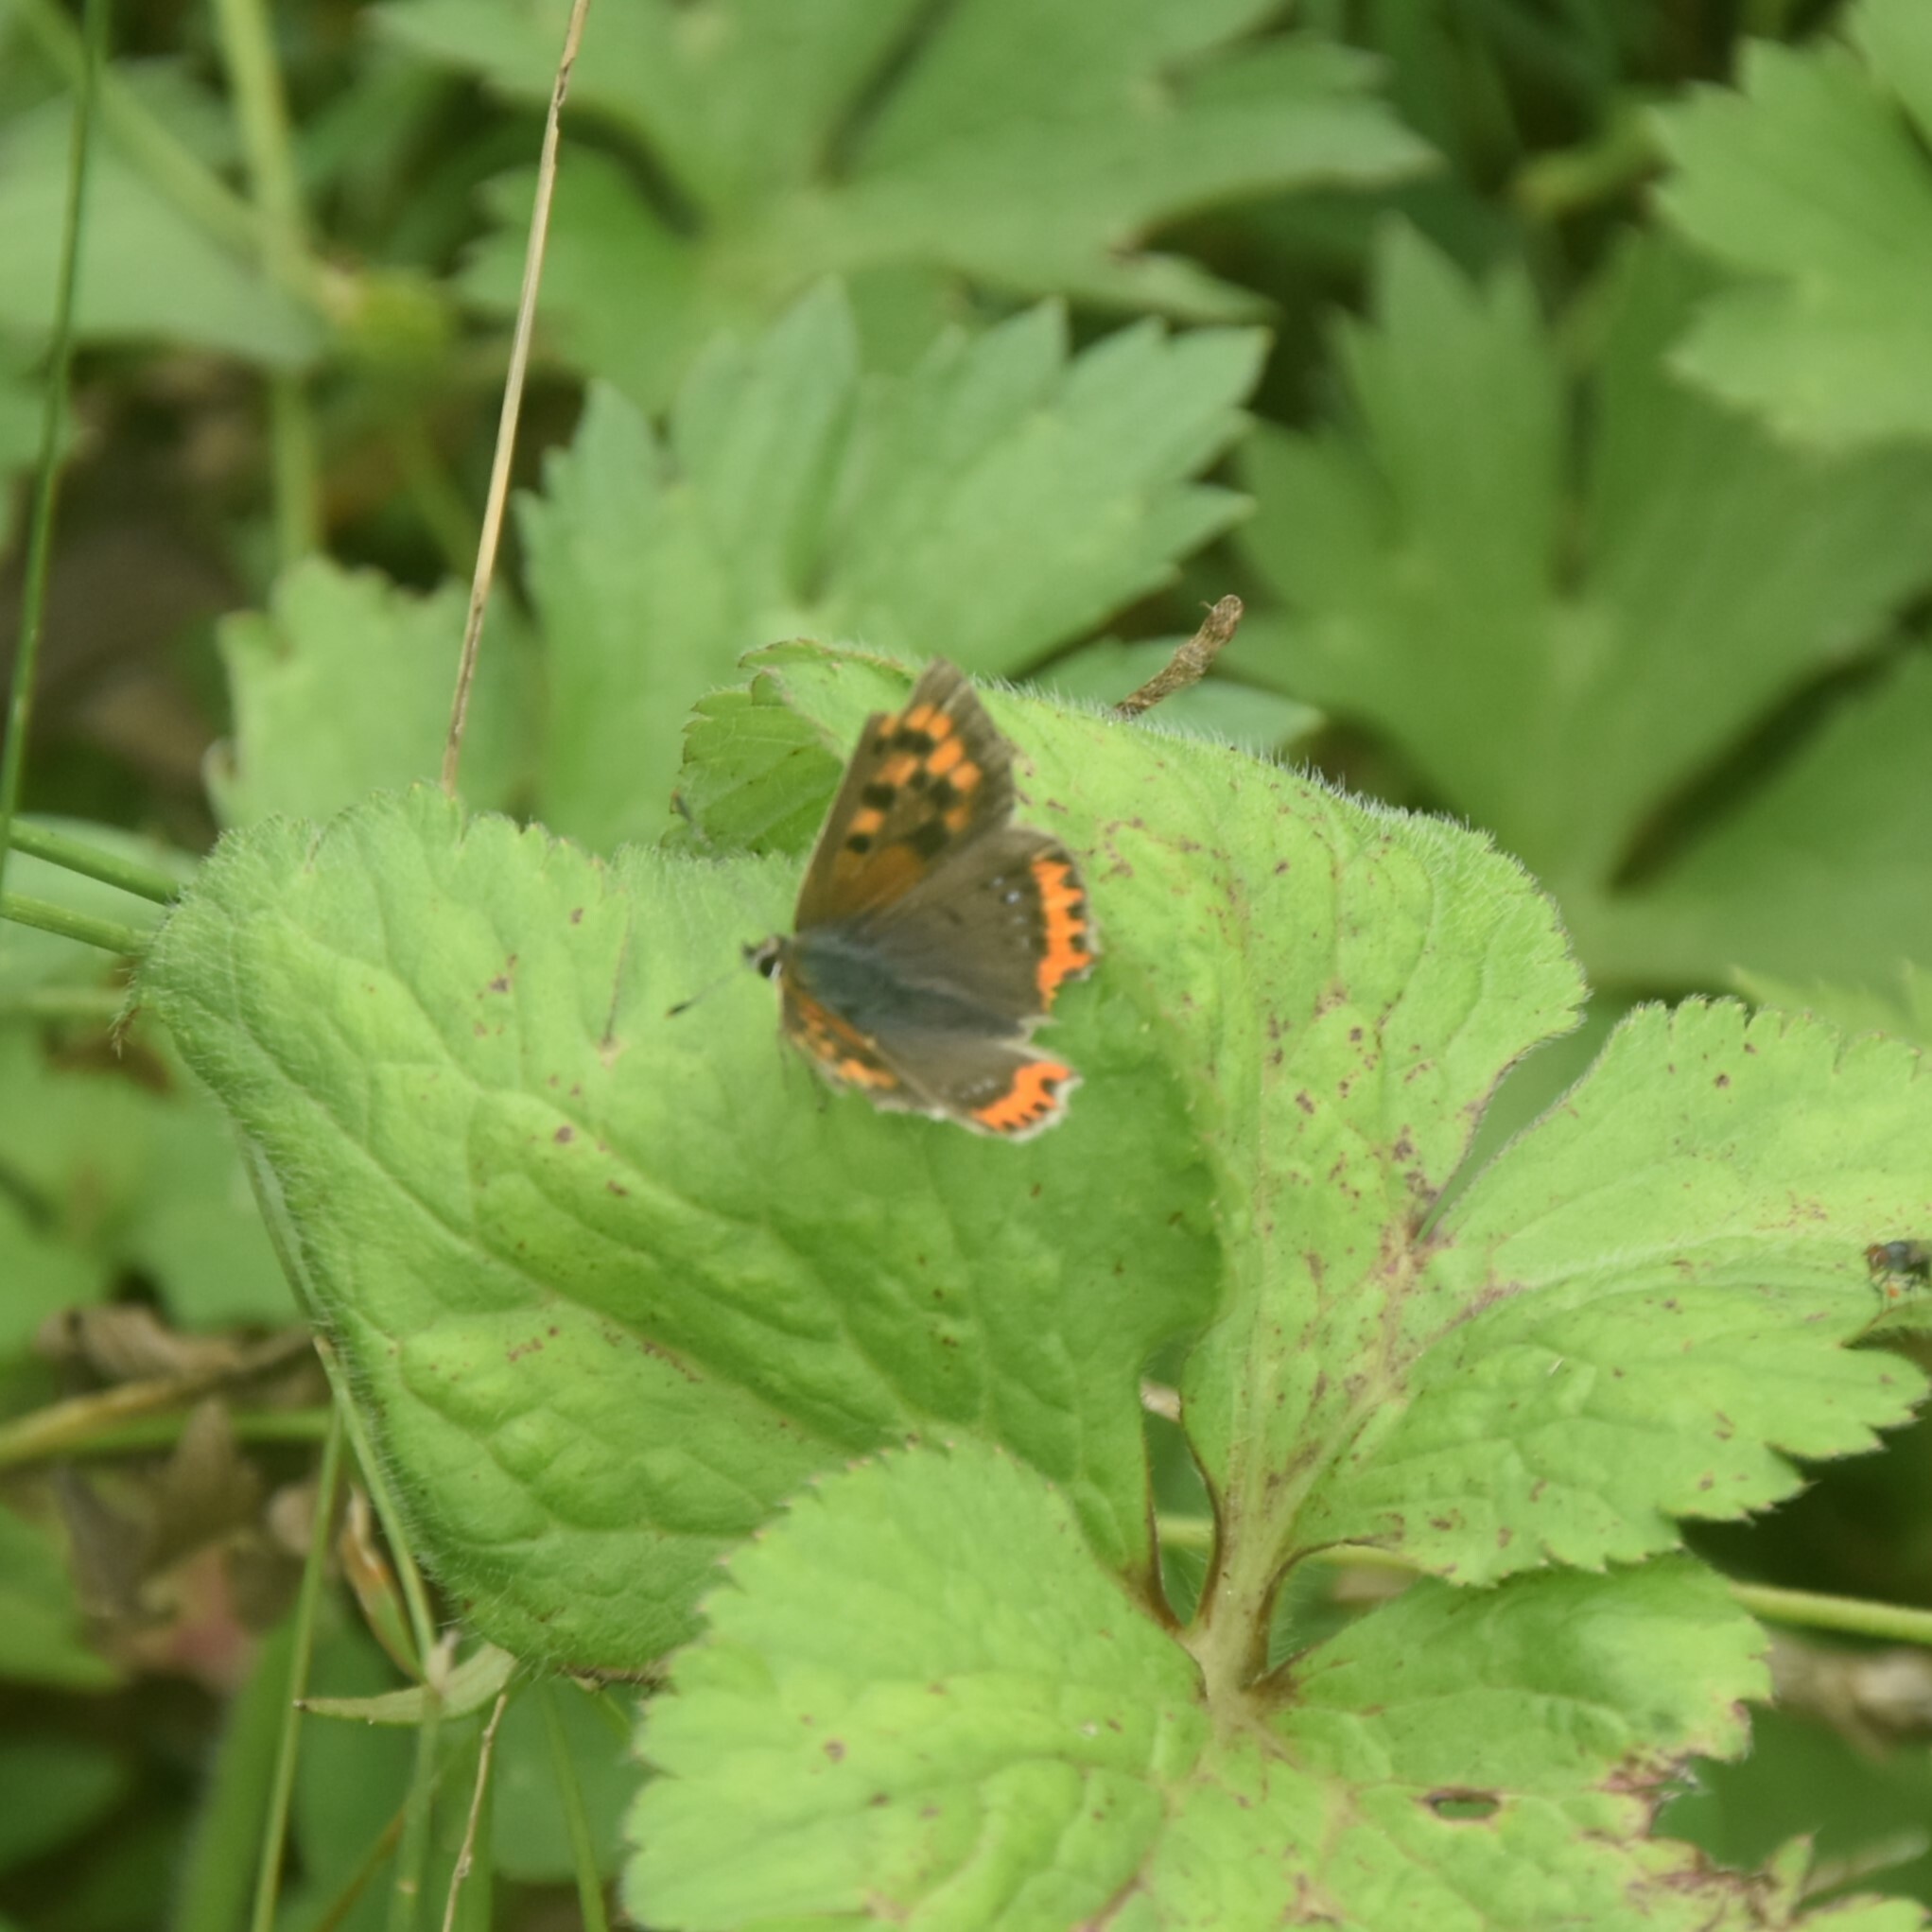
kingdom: Animalia
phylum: Arthropoda
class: Insecta
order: Lepidoptera
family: Lycaenidae
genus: Lycaena
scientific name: Lycaena phlaeas
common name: Small copper
